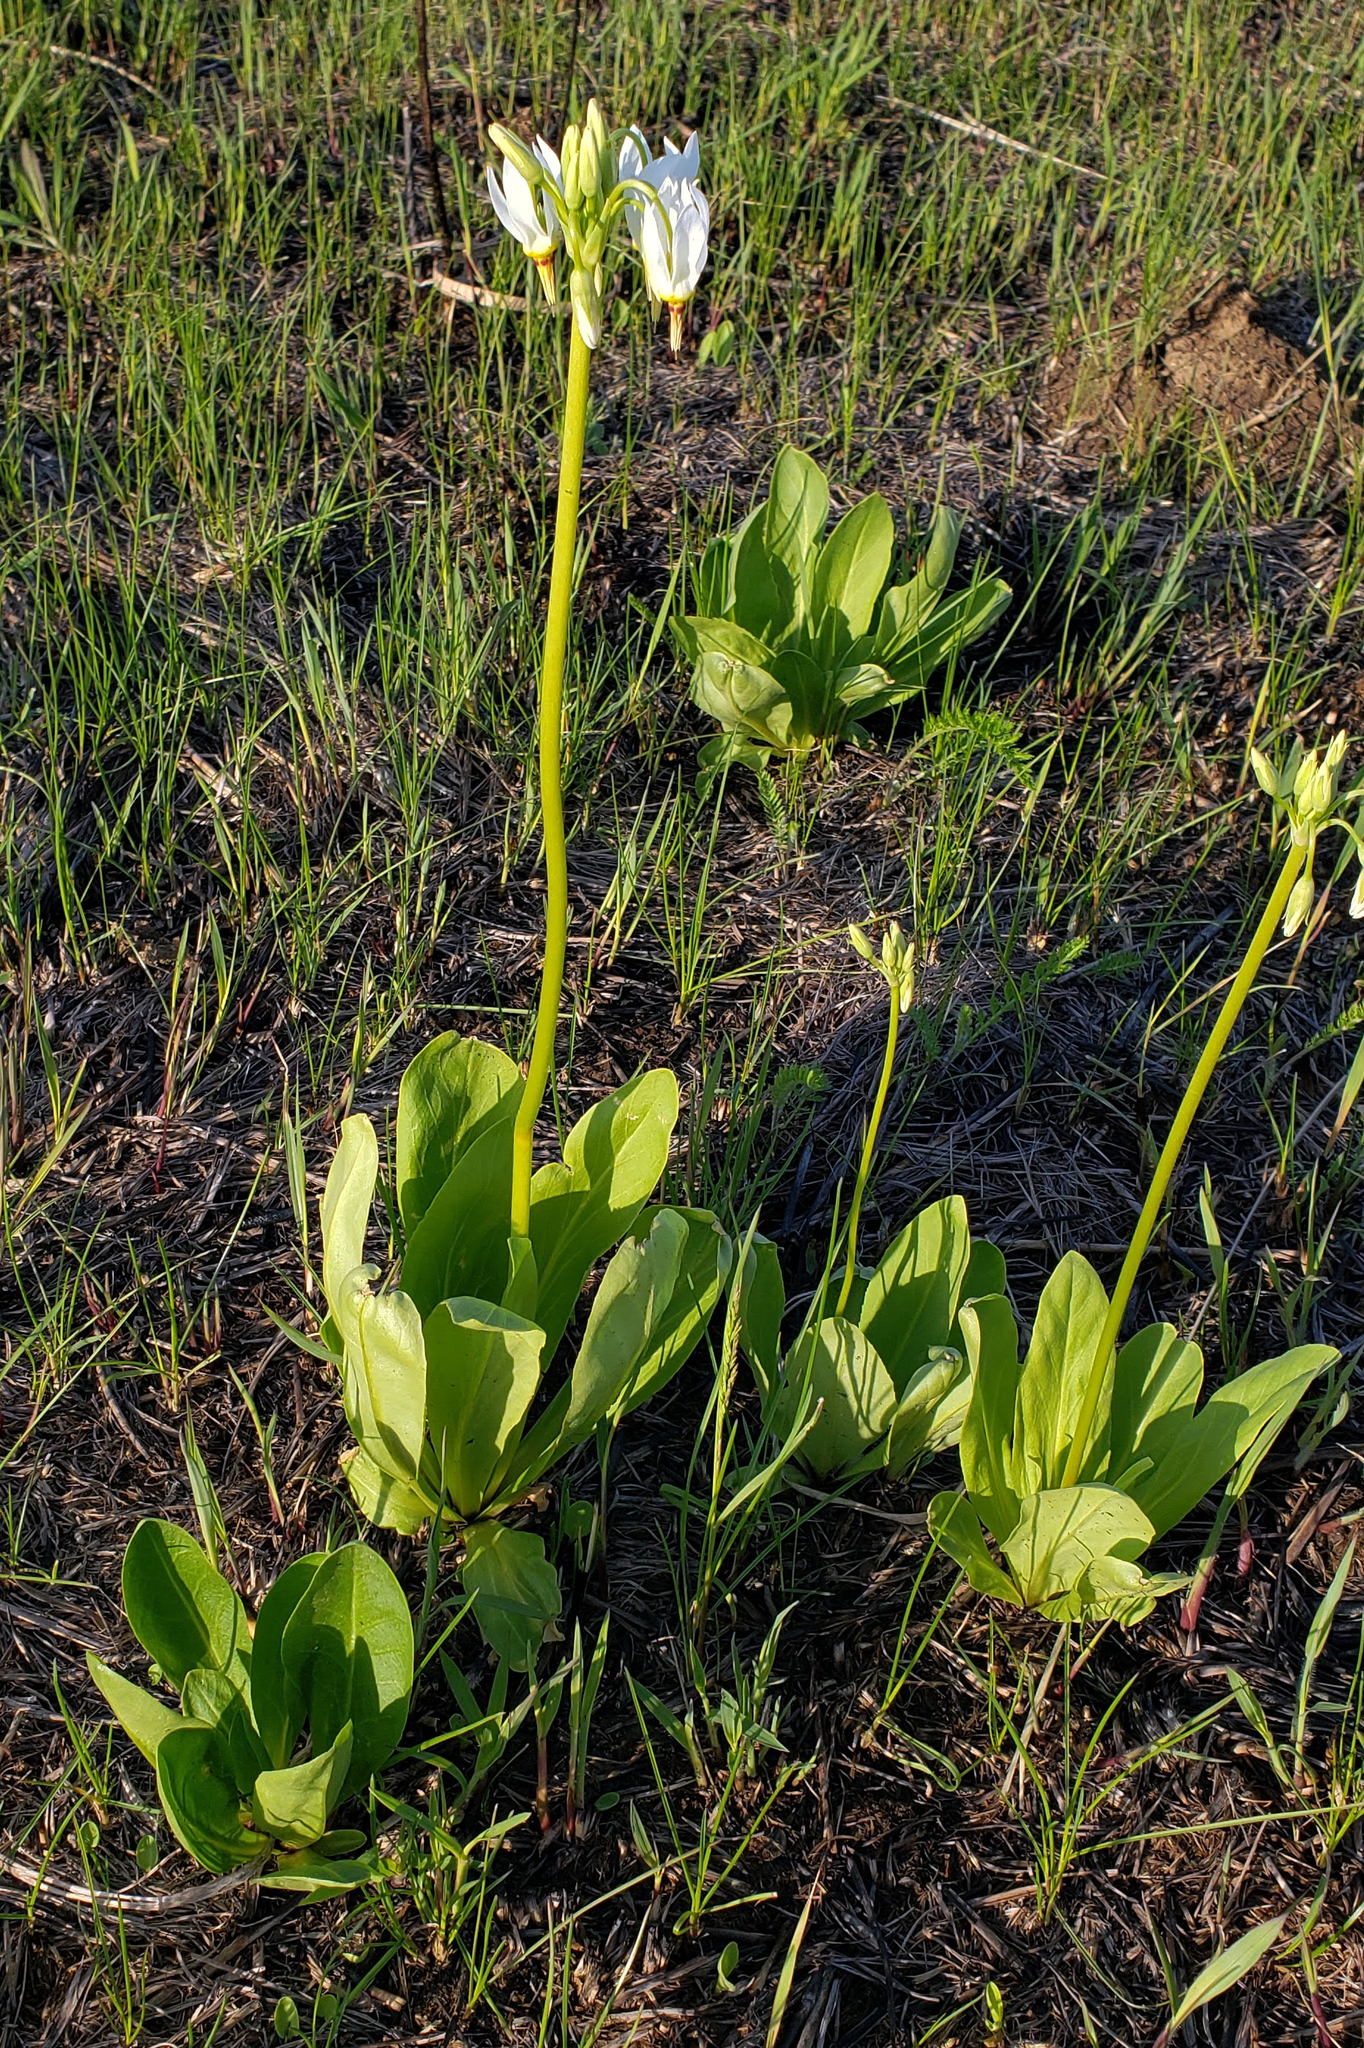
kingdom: Plantae
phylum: Tracheophyta
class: Magnoliopsida
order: Ericales
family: Primulaceae
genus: Dodecatheon
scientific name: Dodecatheon meadia
